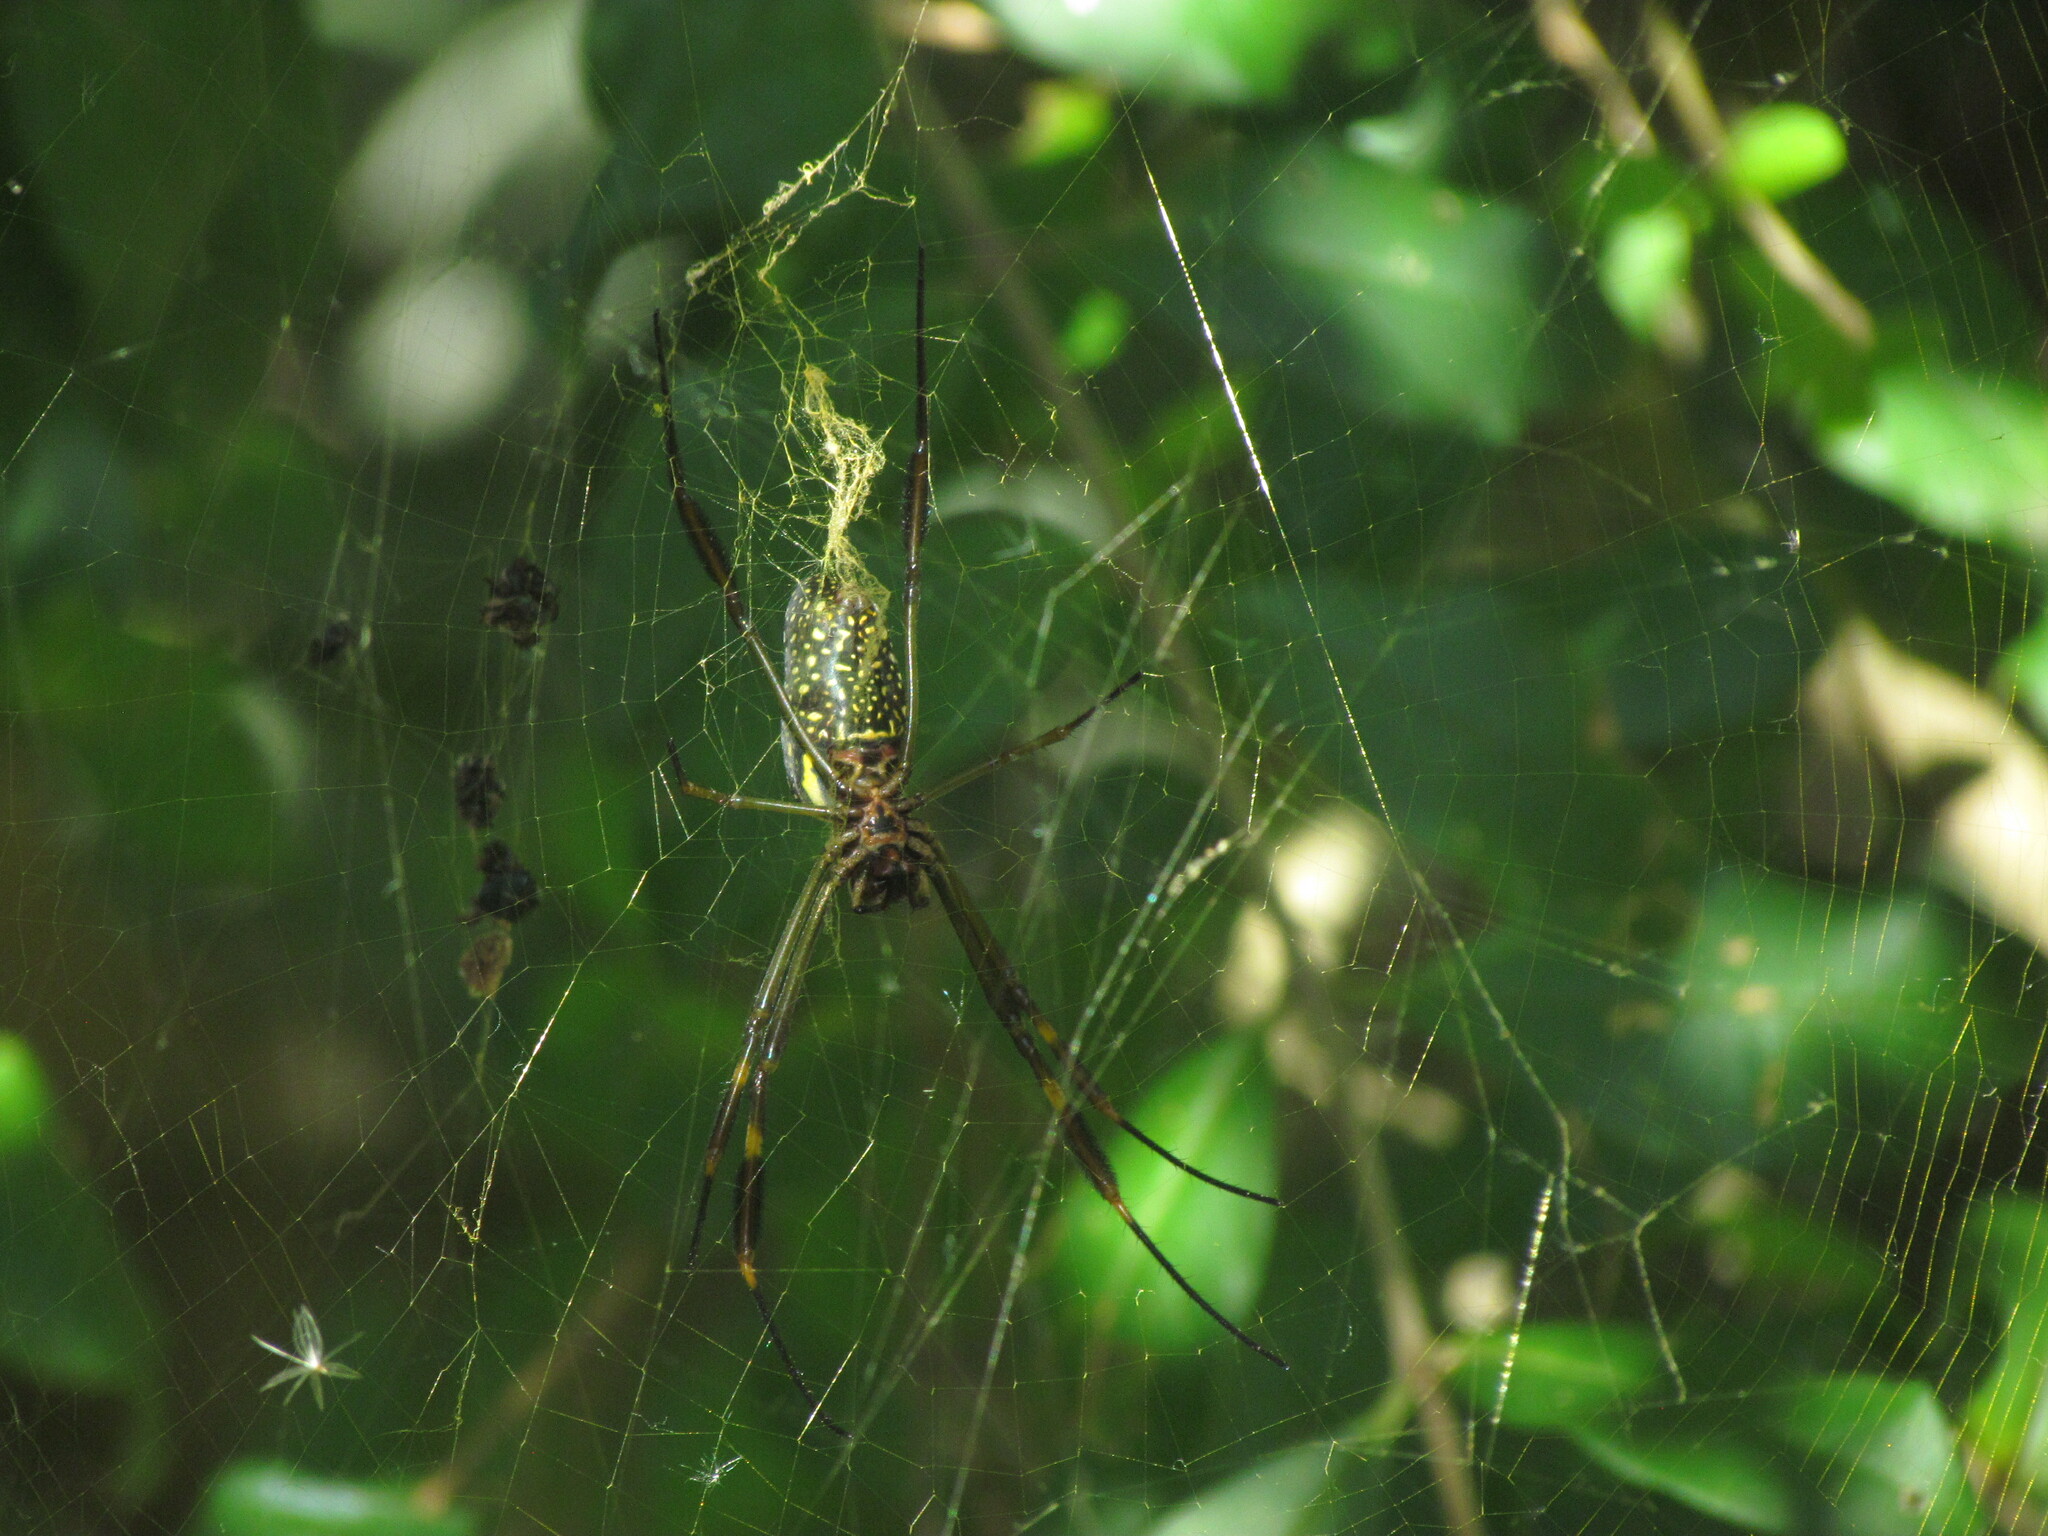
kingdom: Animalia
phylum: Arthropoda
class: Arachnida
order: Araneae
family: Araneidae
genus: Trichonephila
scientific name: Trichonephila clavipes
